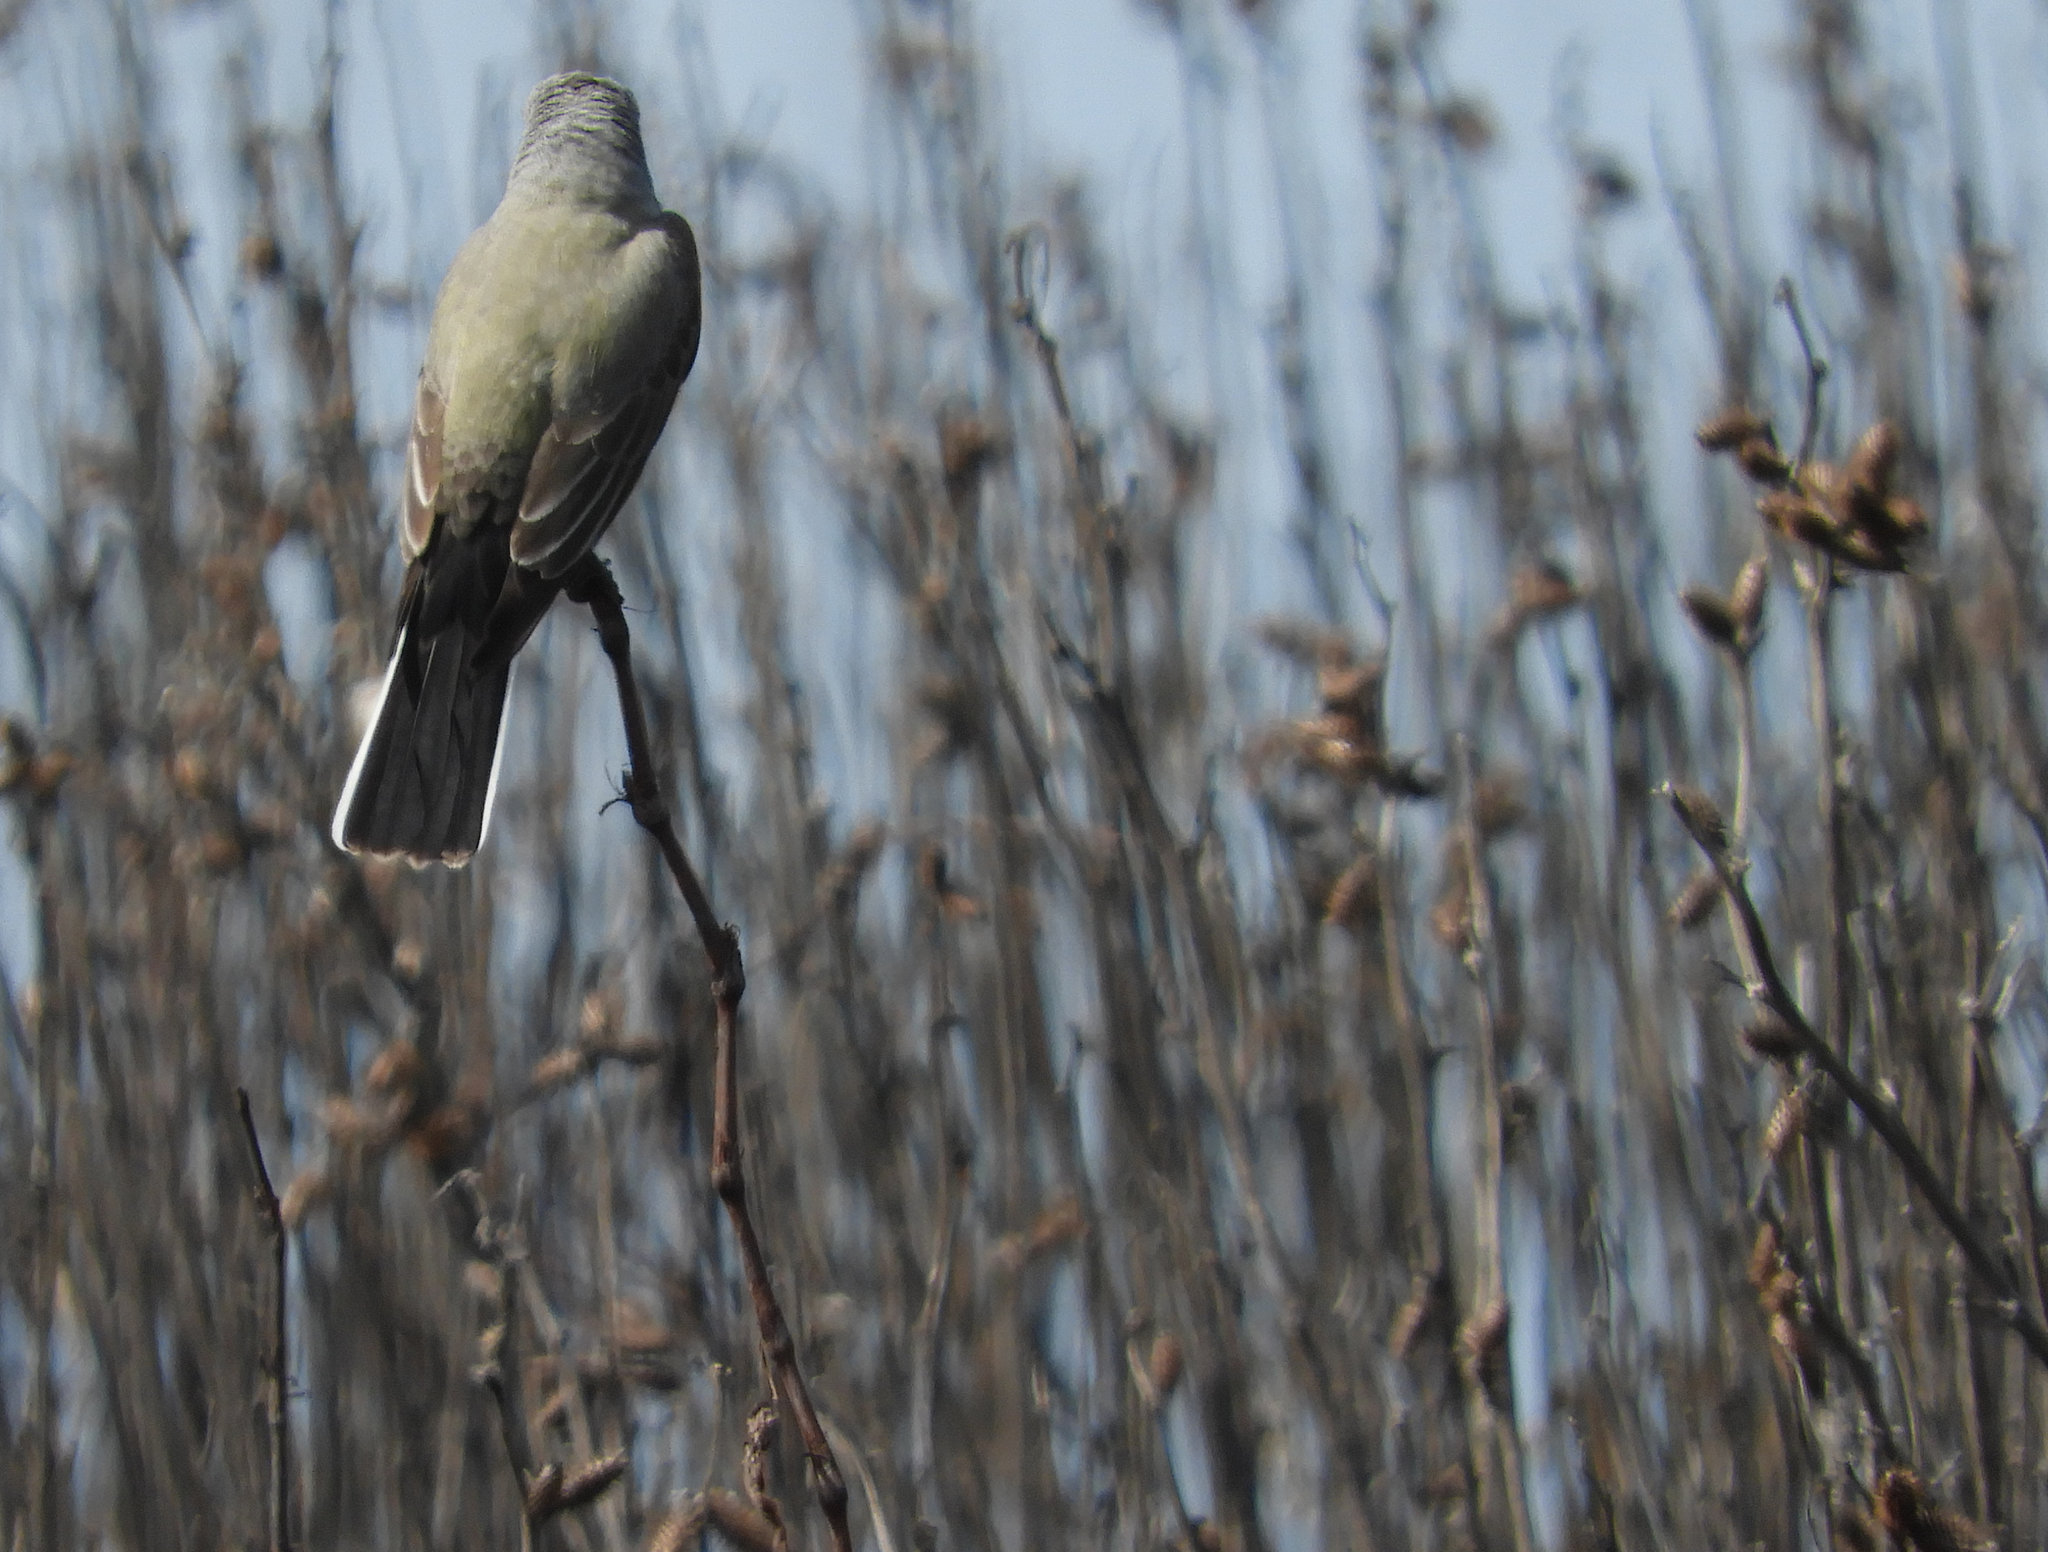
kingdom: Animalia
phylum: Chordata
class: Aves
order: Passeriformes
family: Tyrannidae
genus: Tyrannus
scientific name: Tyrannus verticalis
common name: Western kingbird
